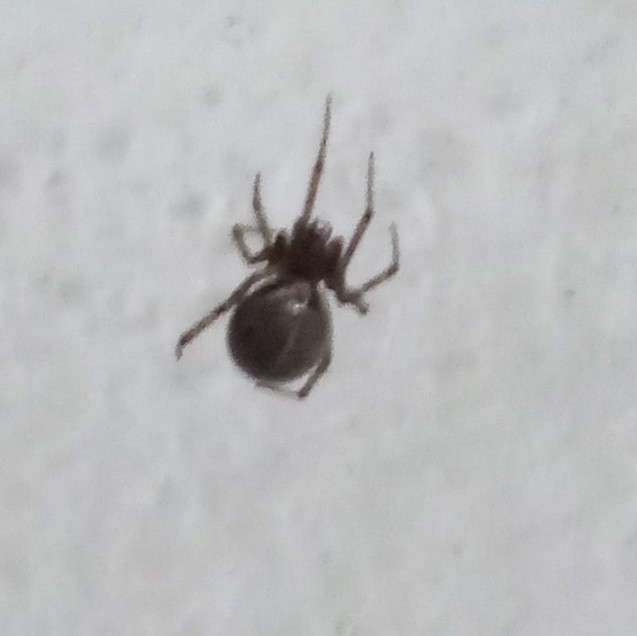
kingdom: Animalia
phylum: Arthropoda
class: Arachnida
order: Araneae
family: Theridiidae
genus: Steatoda
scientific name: Steatoda sabulosa
